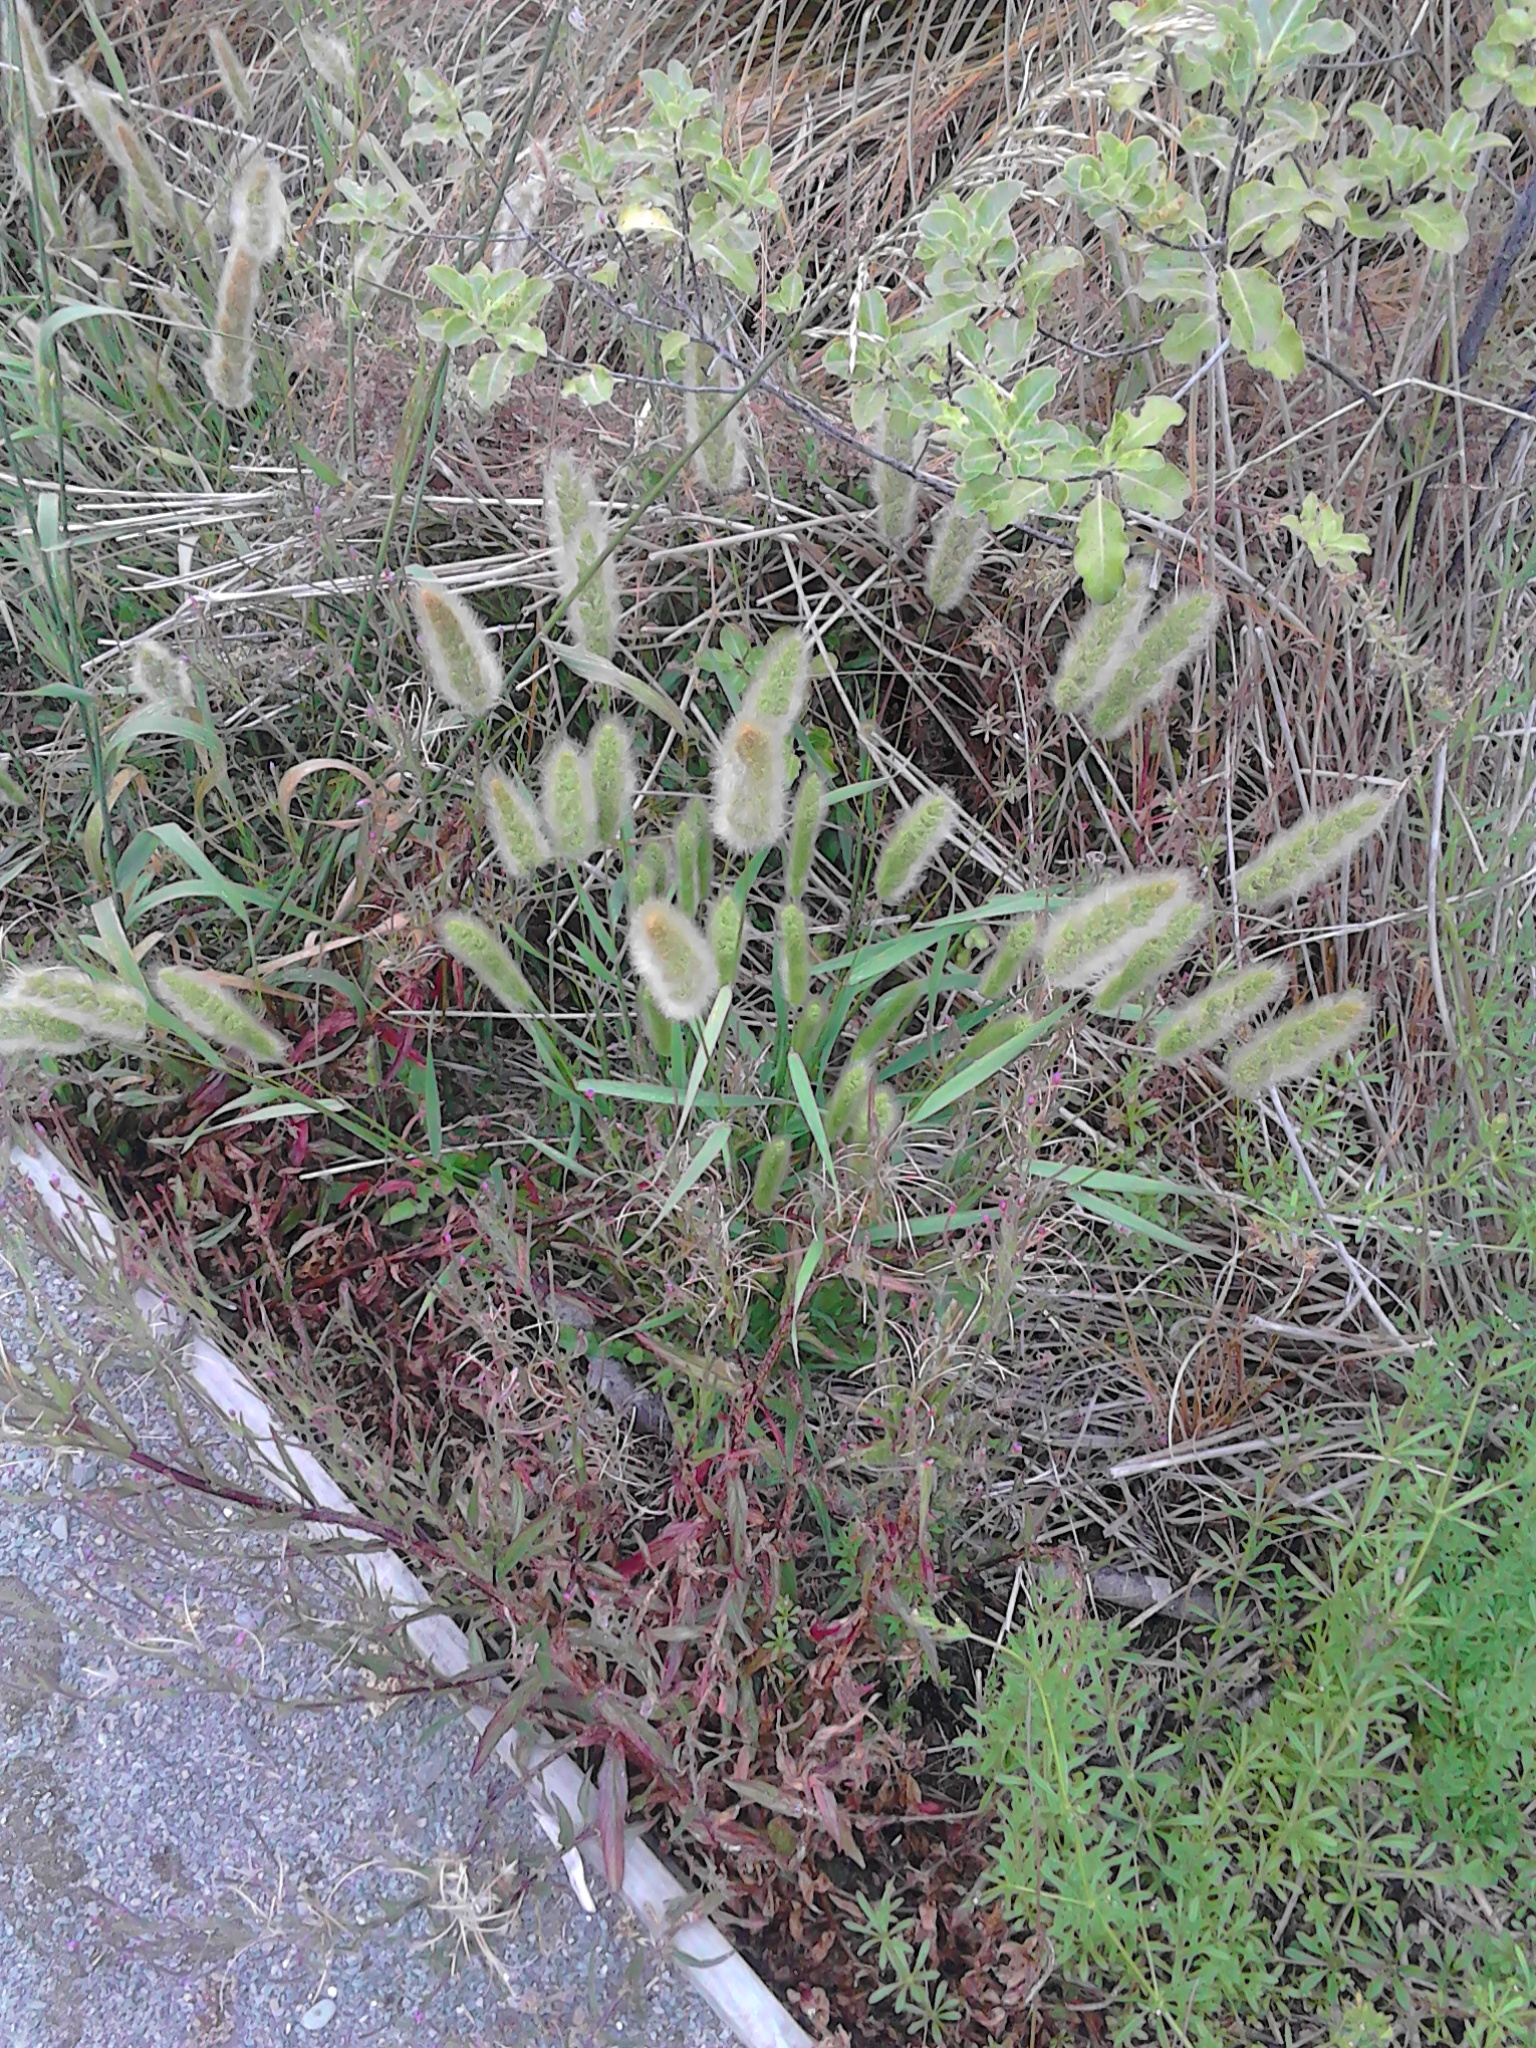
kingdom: Plantae
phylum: Tracheophyta
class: Liliopsida
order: Poales
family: Poaceae
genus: Polypogon
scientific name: Polypogon monspeliensis
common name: Annual rabbitsfoot grass
